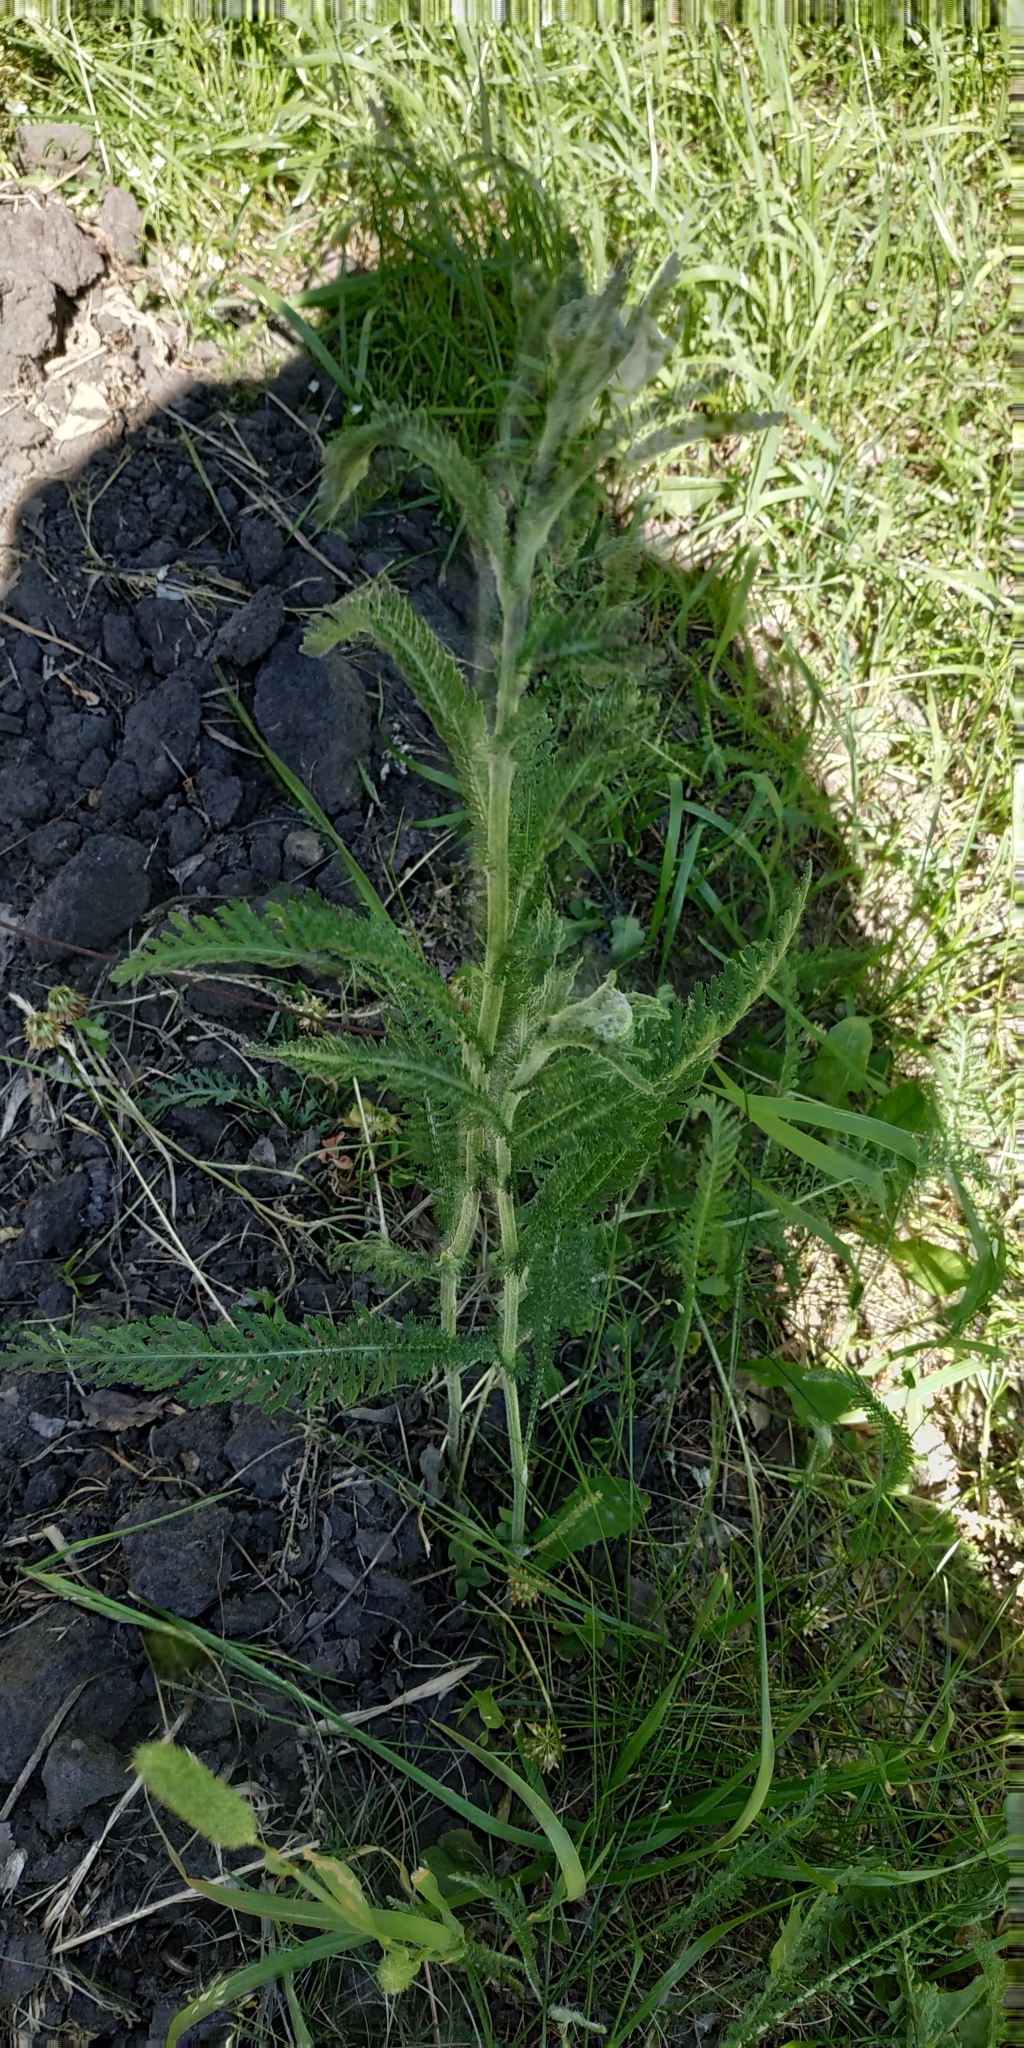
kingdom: Plantae
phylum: Tracheophyta
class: Magnoliopsida
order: Asterales
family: Asteraceae
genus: Achillea
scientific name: Achillea millefolium
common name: Yarrow
